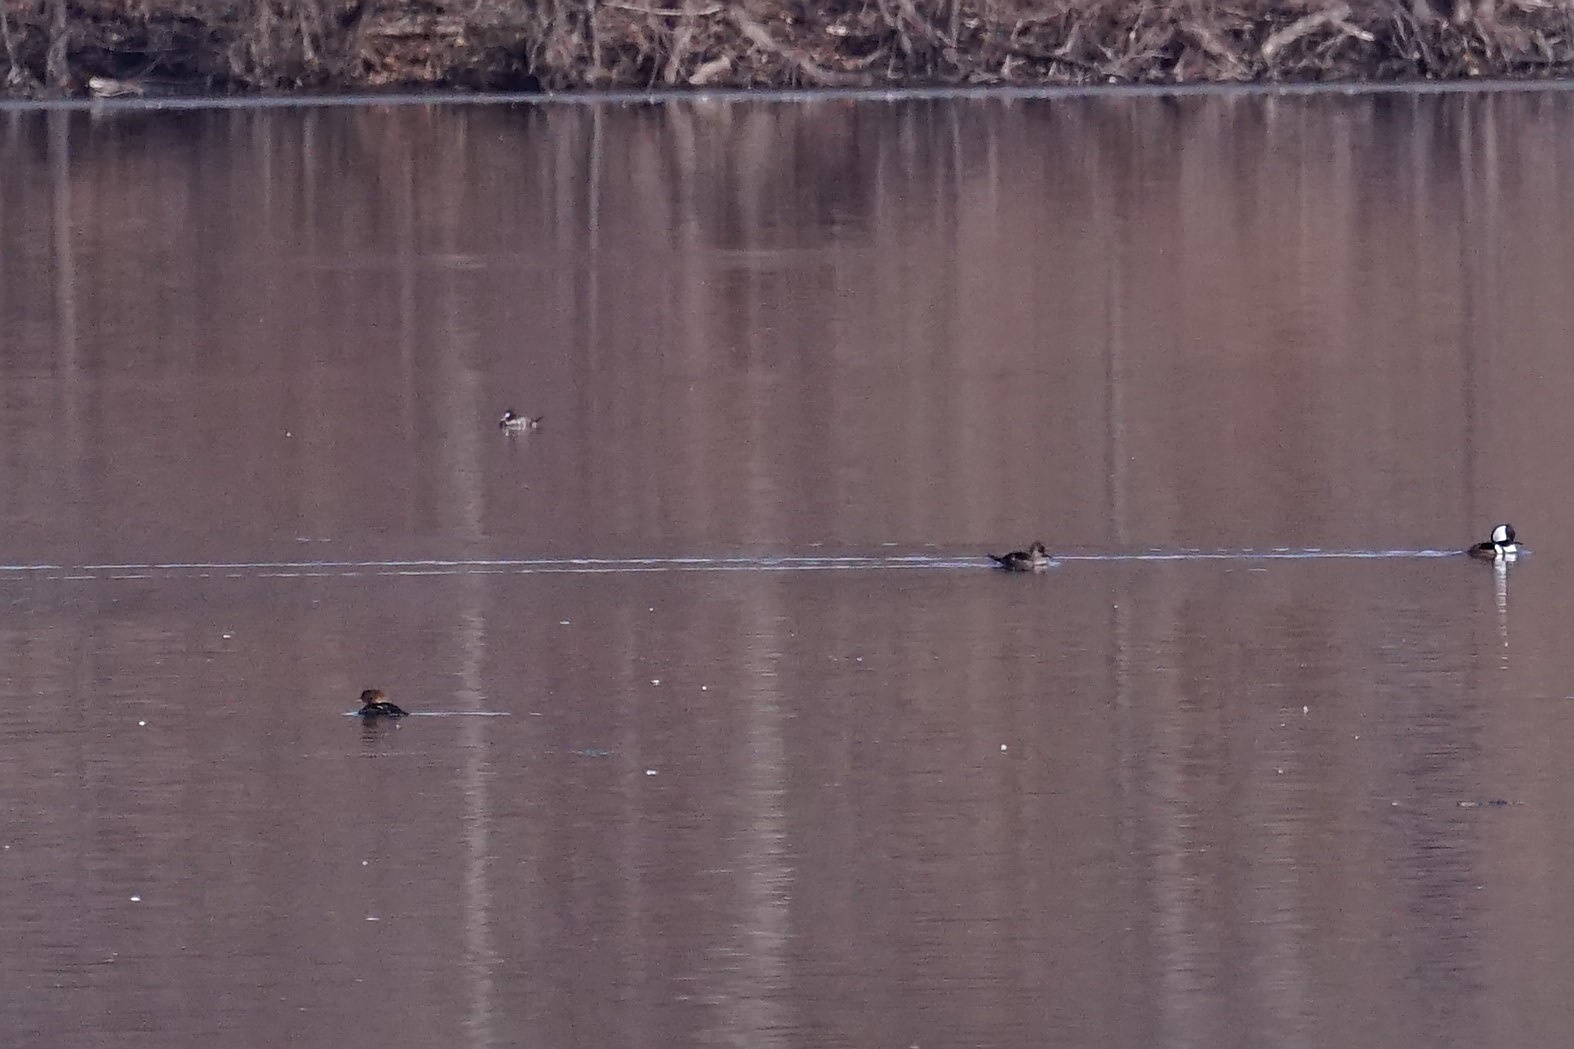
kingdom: Animalia
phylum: Chordata
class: Aves
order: Anseriformes
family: Anatidae
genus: Lophodytes
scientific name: Lophodytes cucullatus
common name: Hooded merganser
